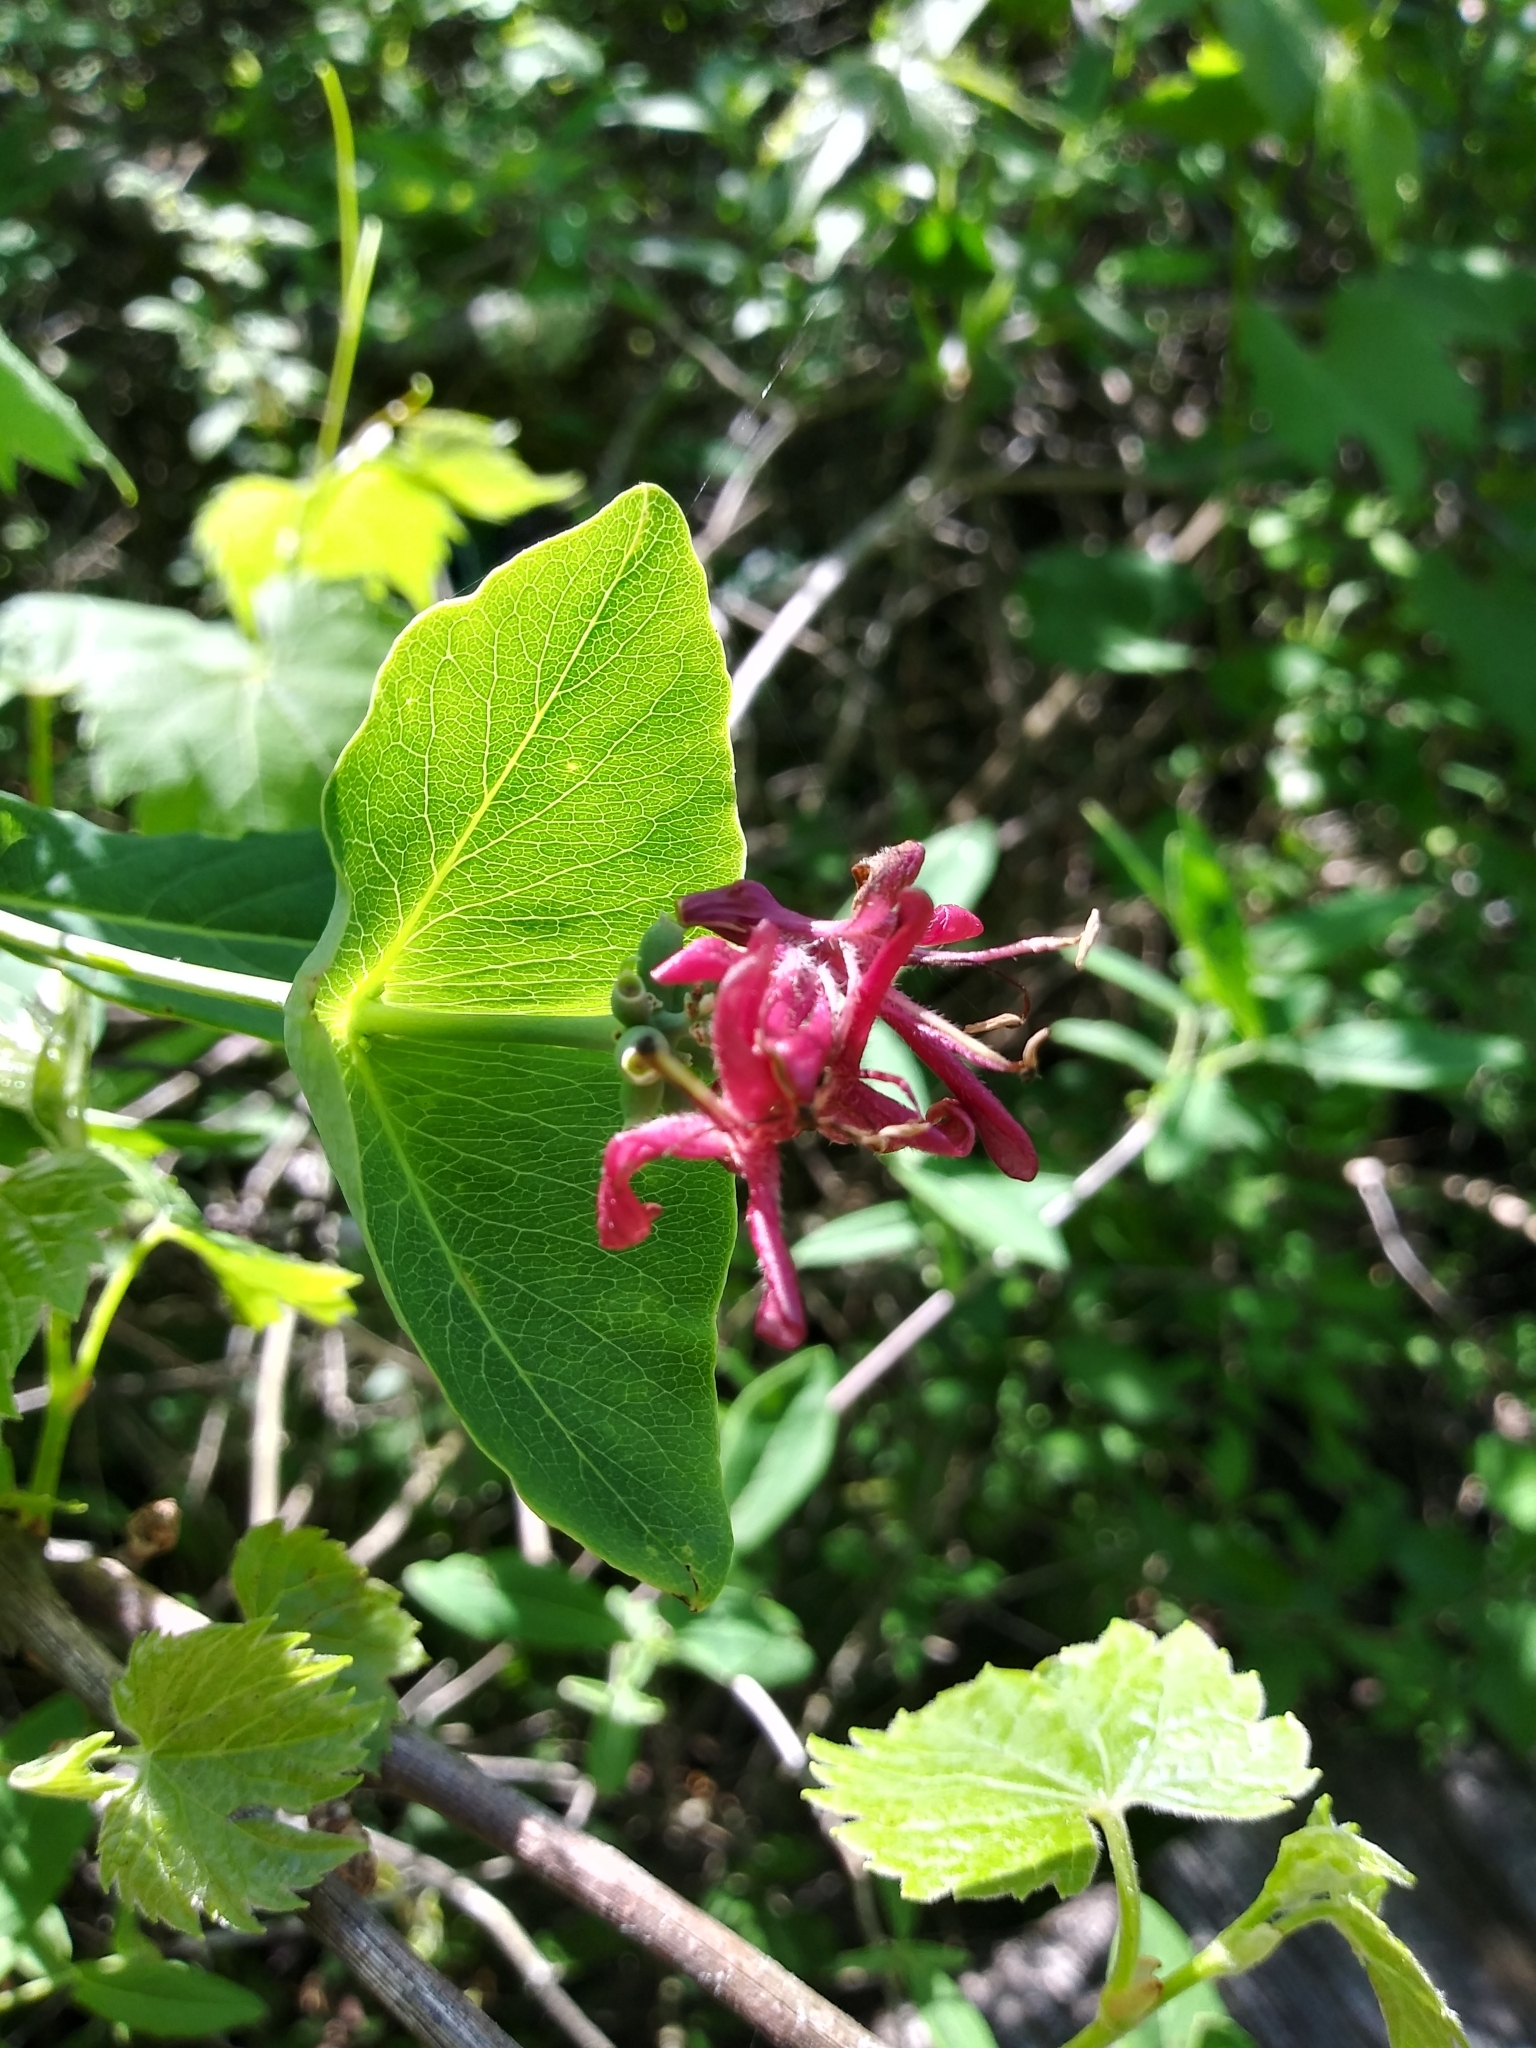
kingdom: Plantae
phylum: Tracheophyta
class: Magnoliopsida
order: Dipsacales
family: Caprifoliaceae
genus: Lonicera
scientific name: Lonicera dioica
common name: Limber honeysuckle
